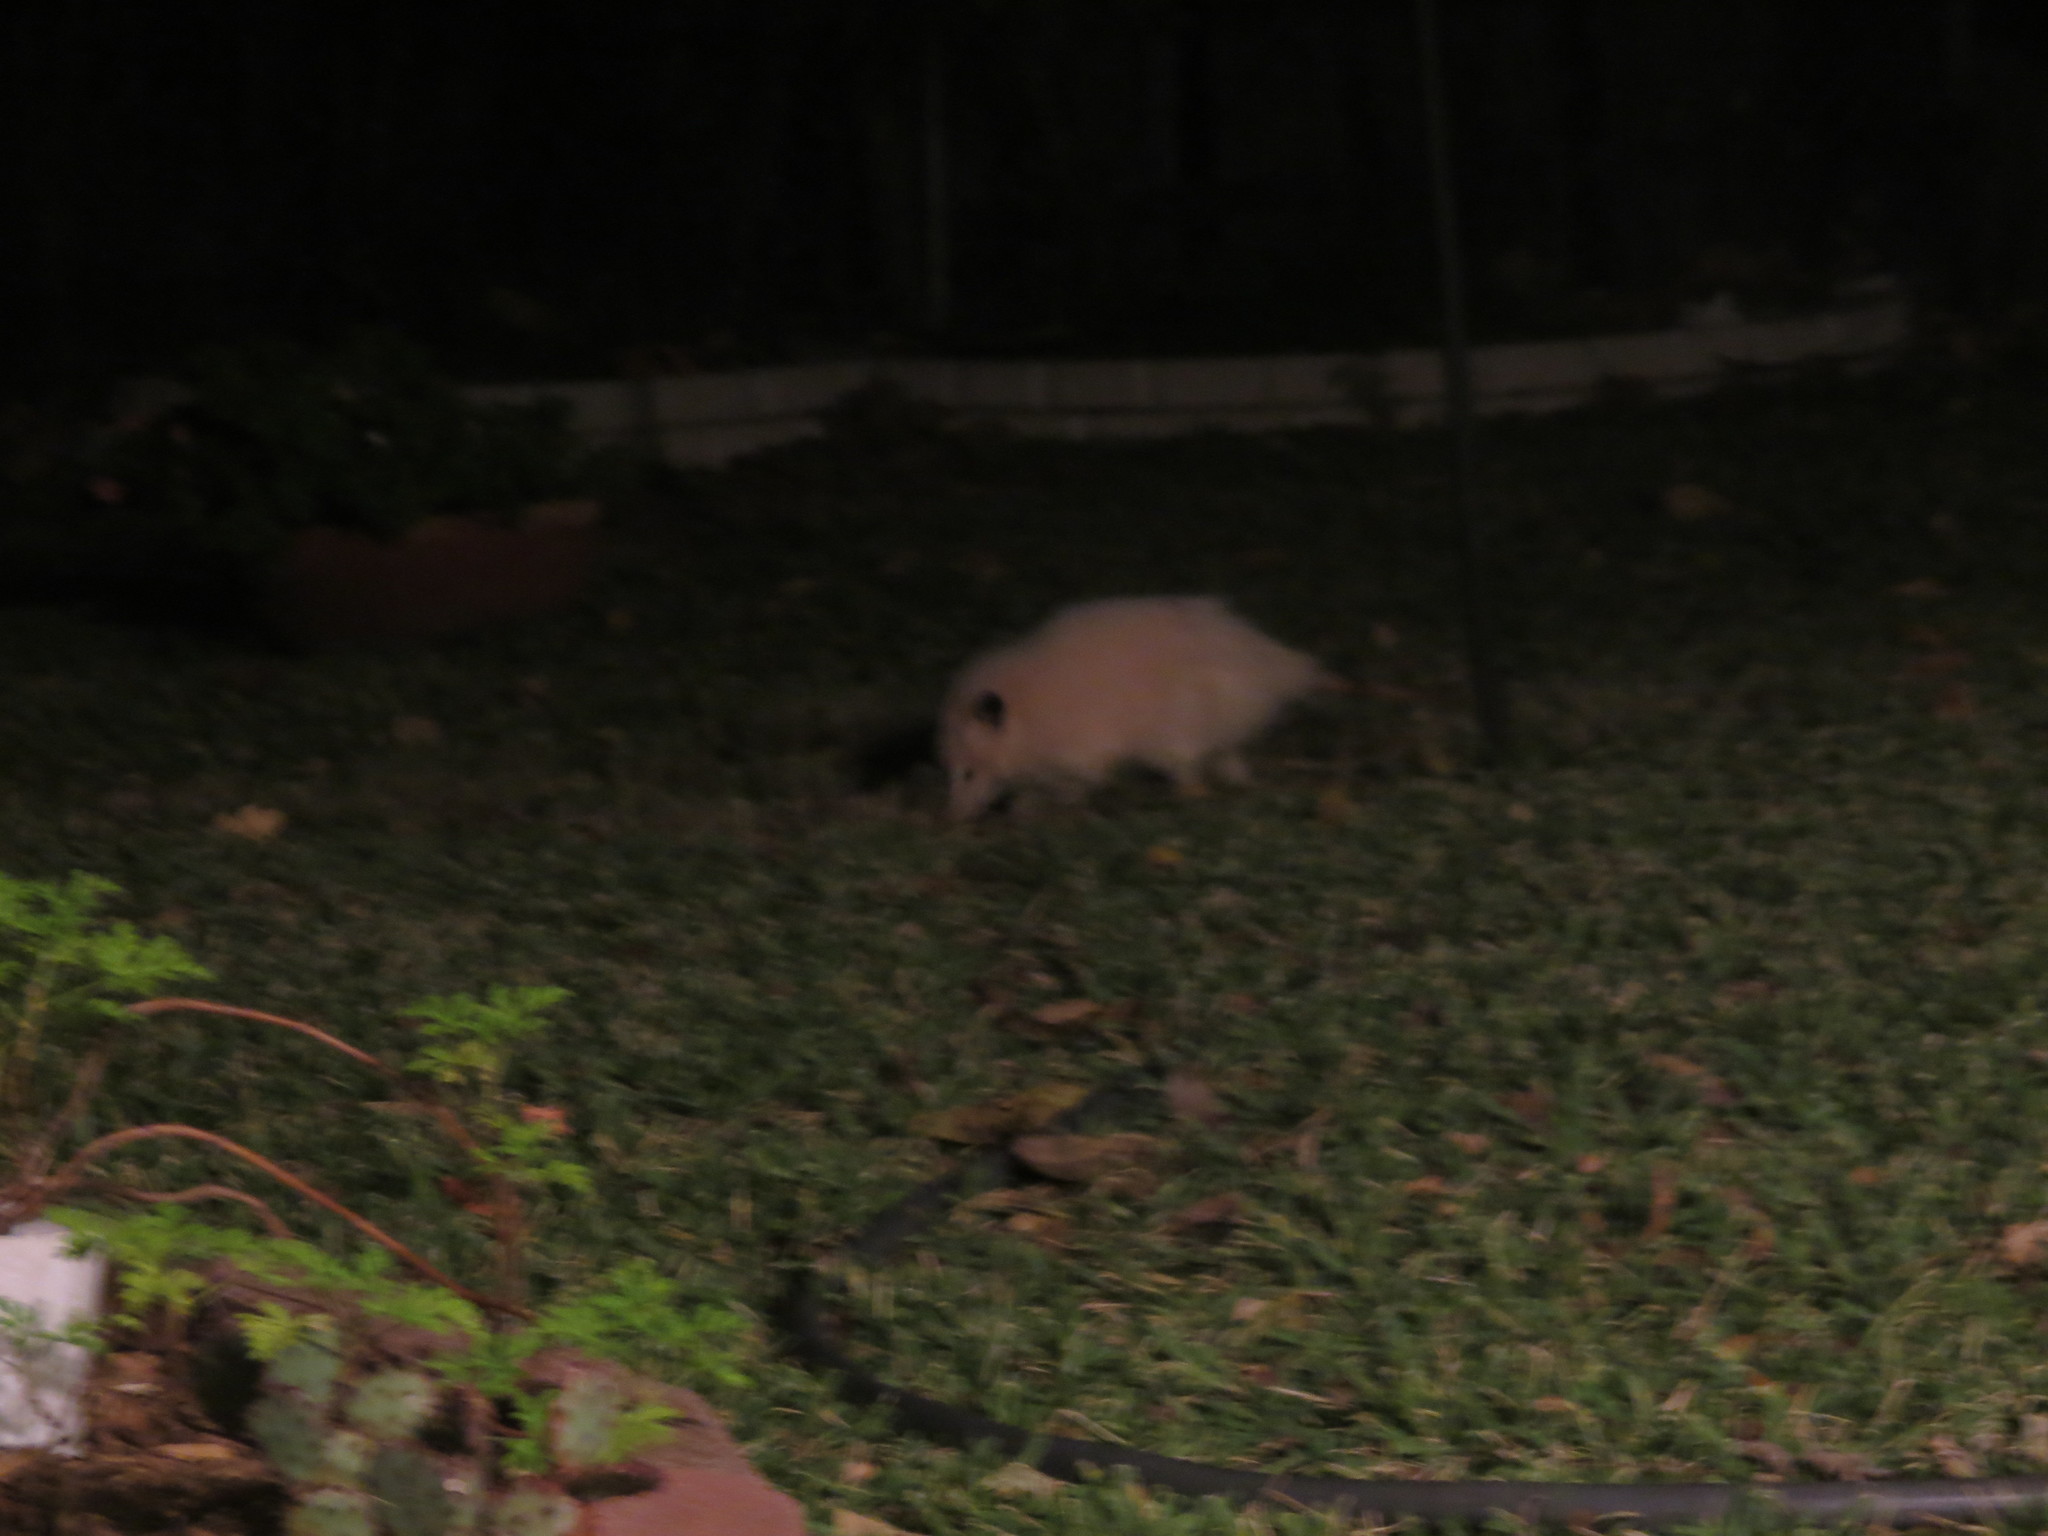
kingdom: Animalia
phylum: Chordata
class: Mammalia
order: Didelphimorphia
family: Didelphidae
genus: Didelphis
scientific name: Didelphis virginiana
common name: Virginia opossum
